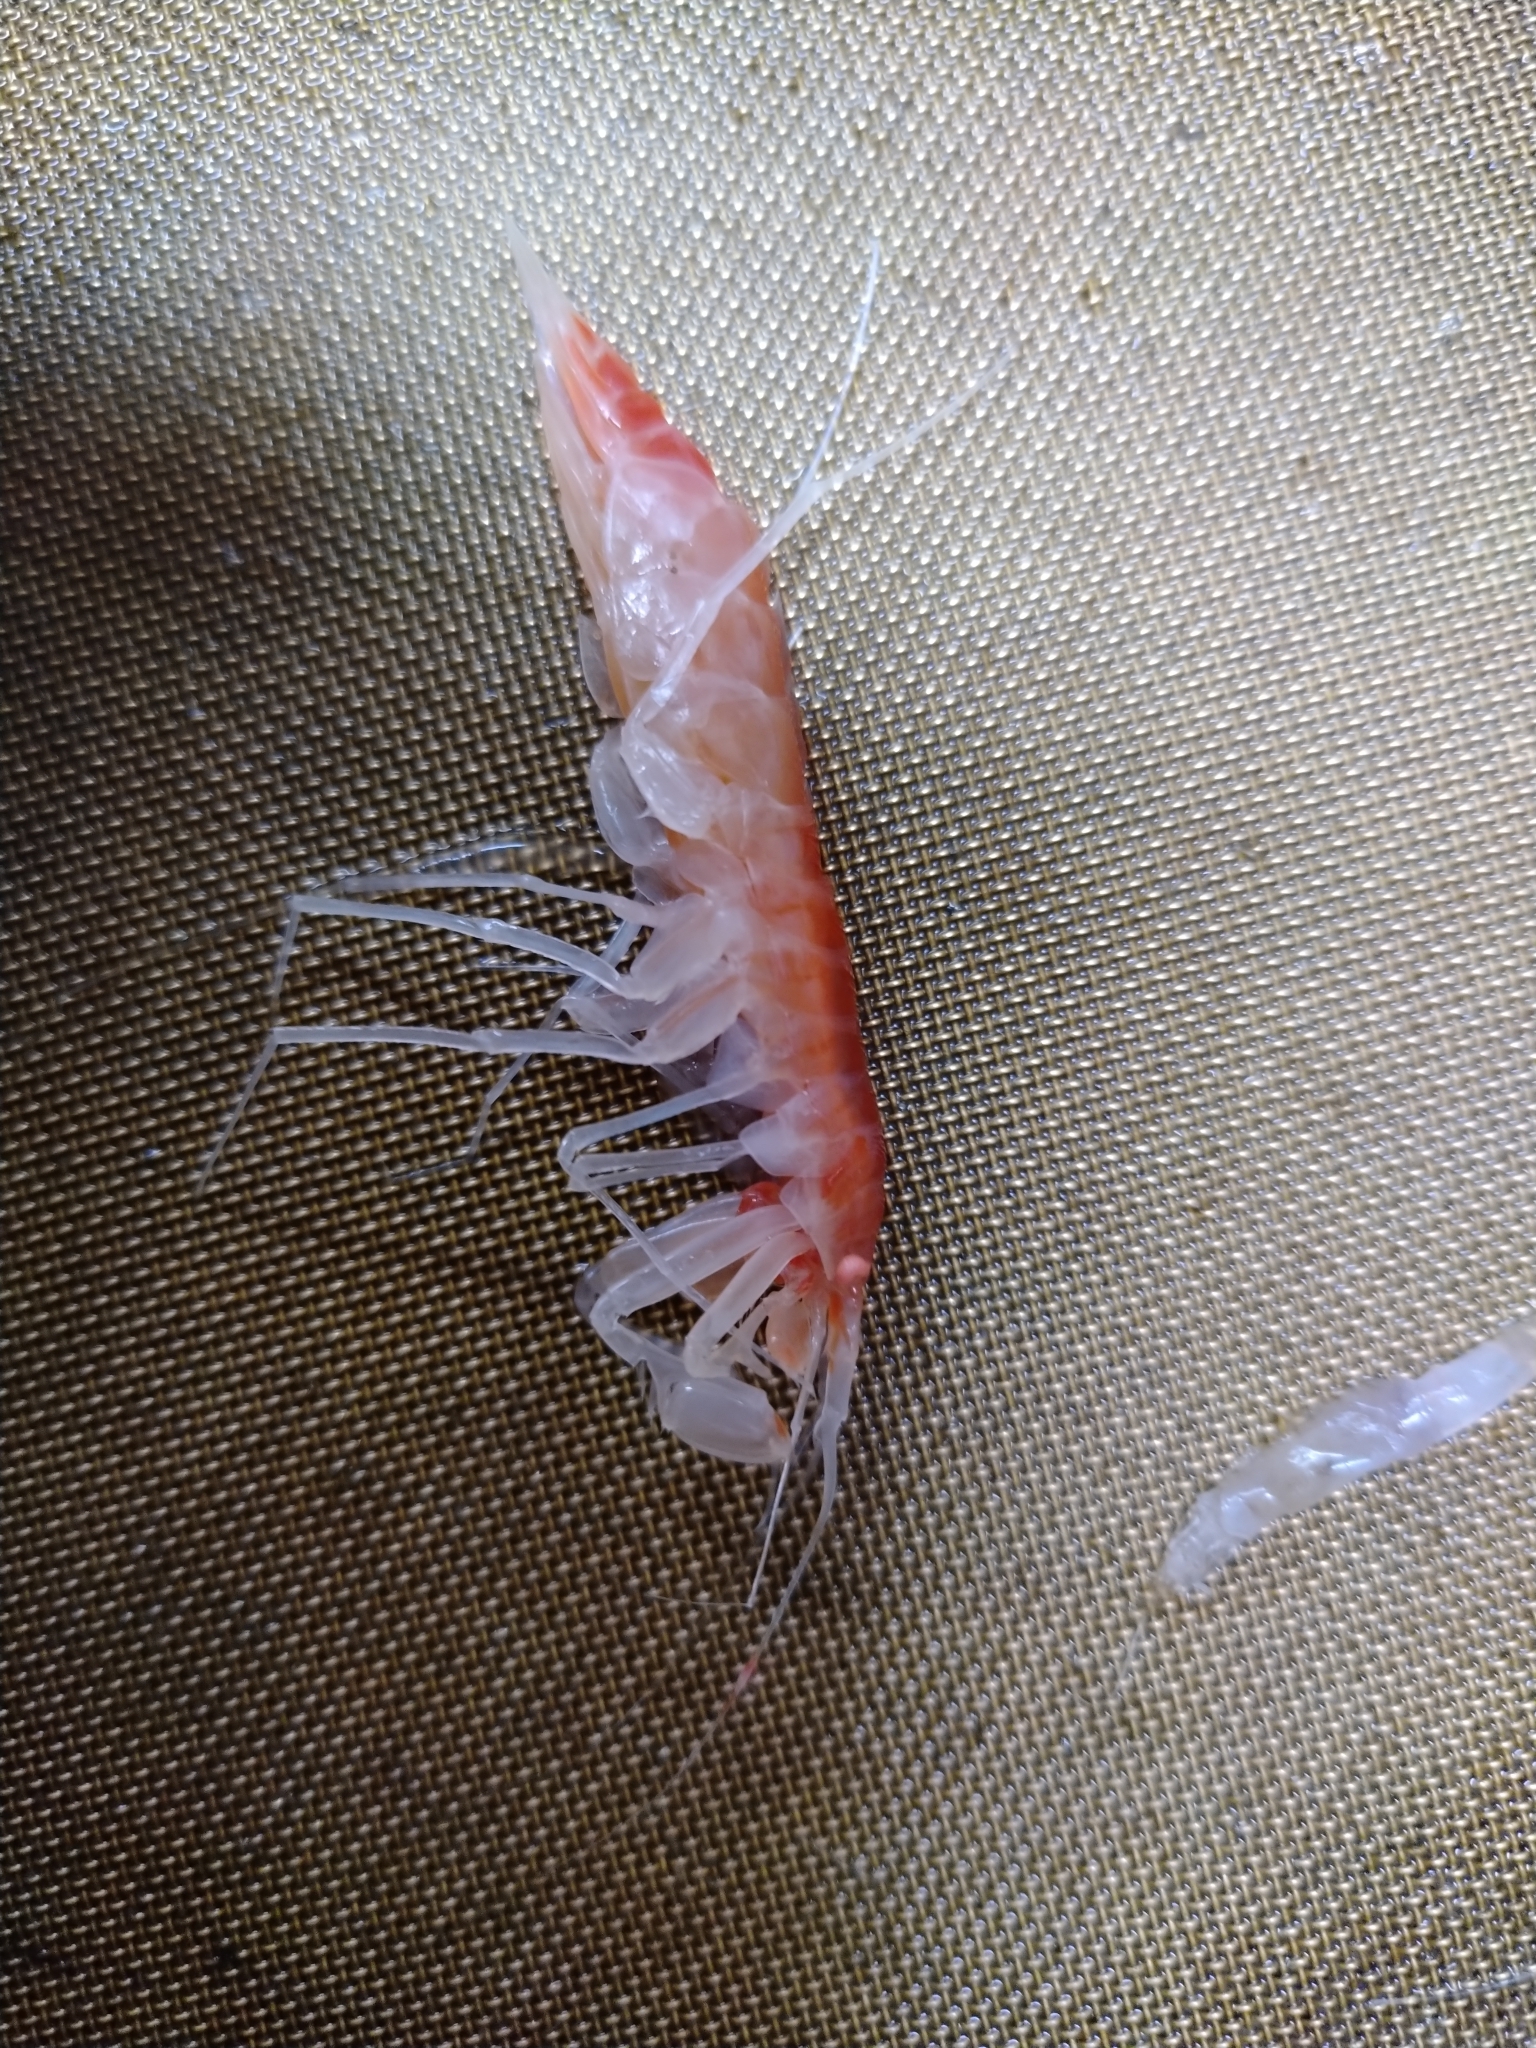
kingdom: Animalia
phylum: Arthropoda
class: Malacostraca
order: Amphipoda
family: Eusiridae
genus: Eusirus
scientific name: Eusirus holmii
